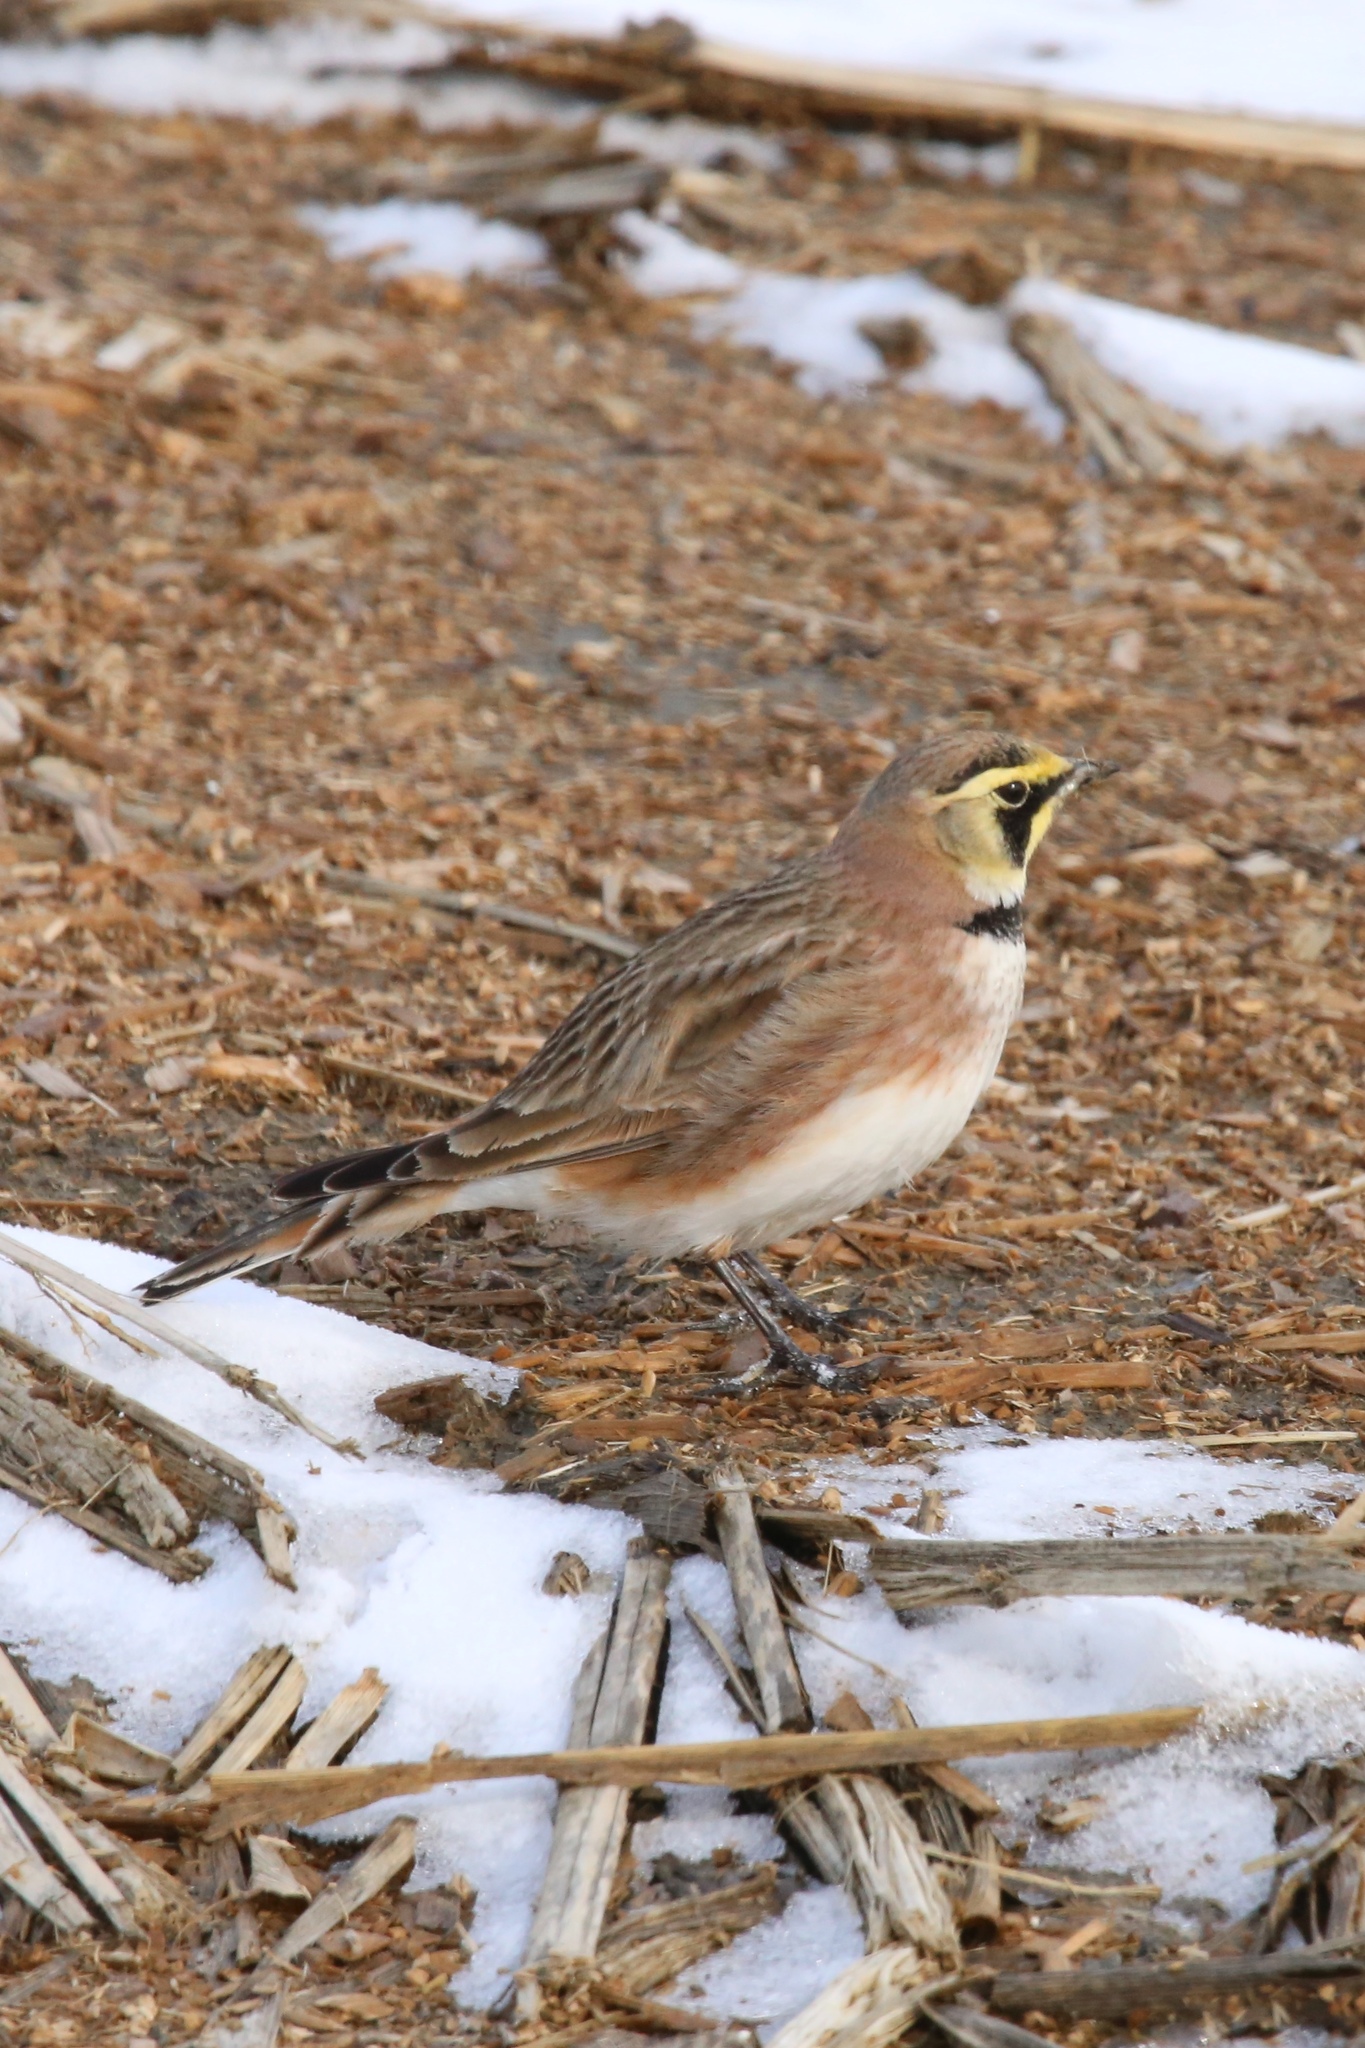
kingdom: Animalia
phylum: Chordata
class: Aves
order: Passeriformes
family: Alaudidae
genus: Eremophila
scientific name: Eremophila alpestris
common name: Horned lark
